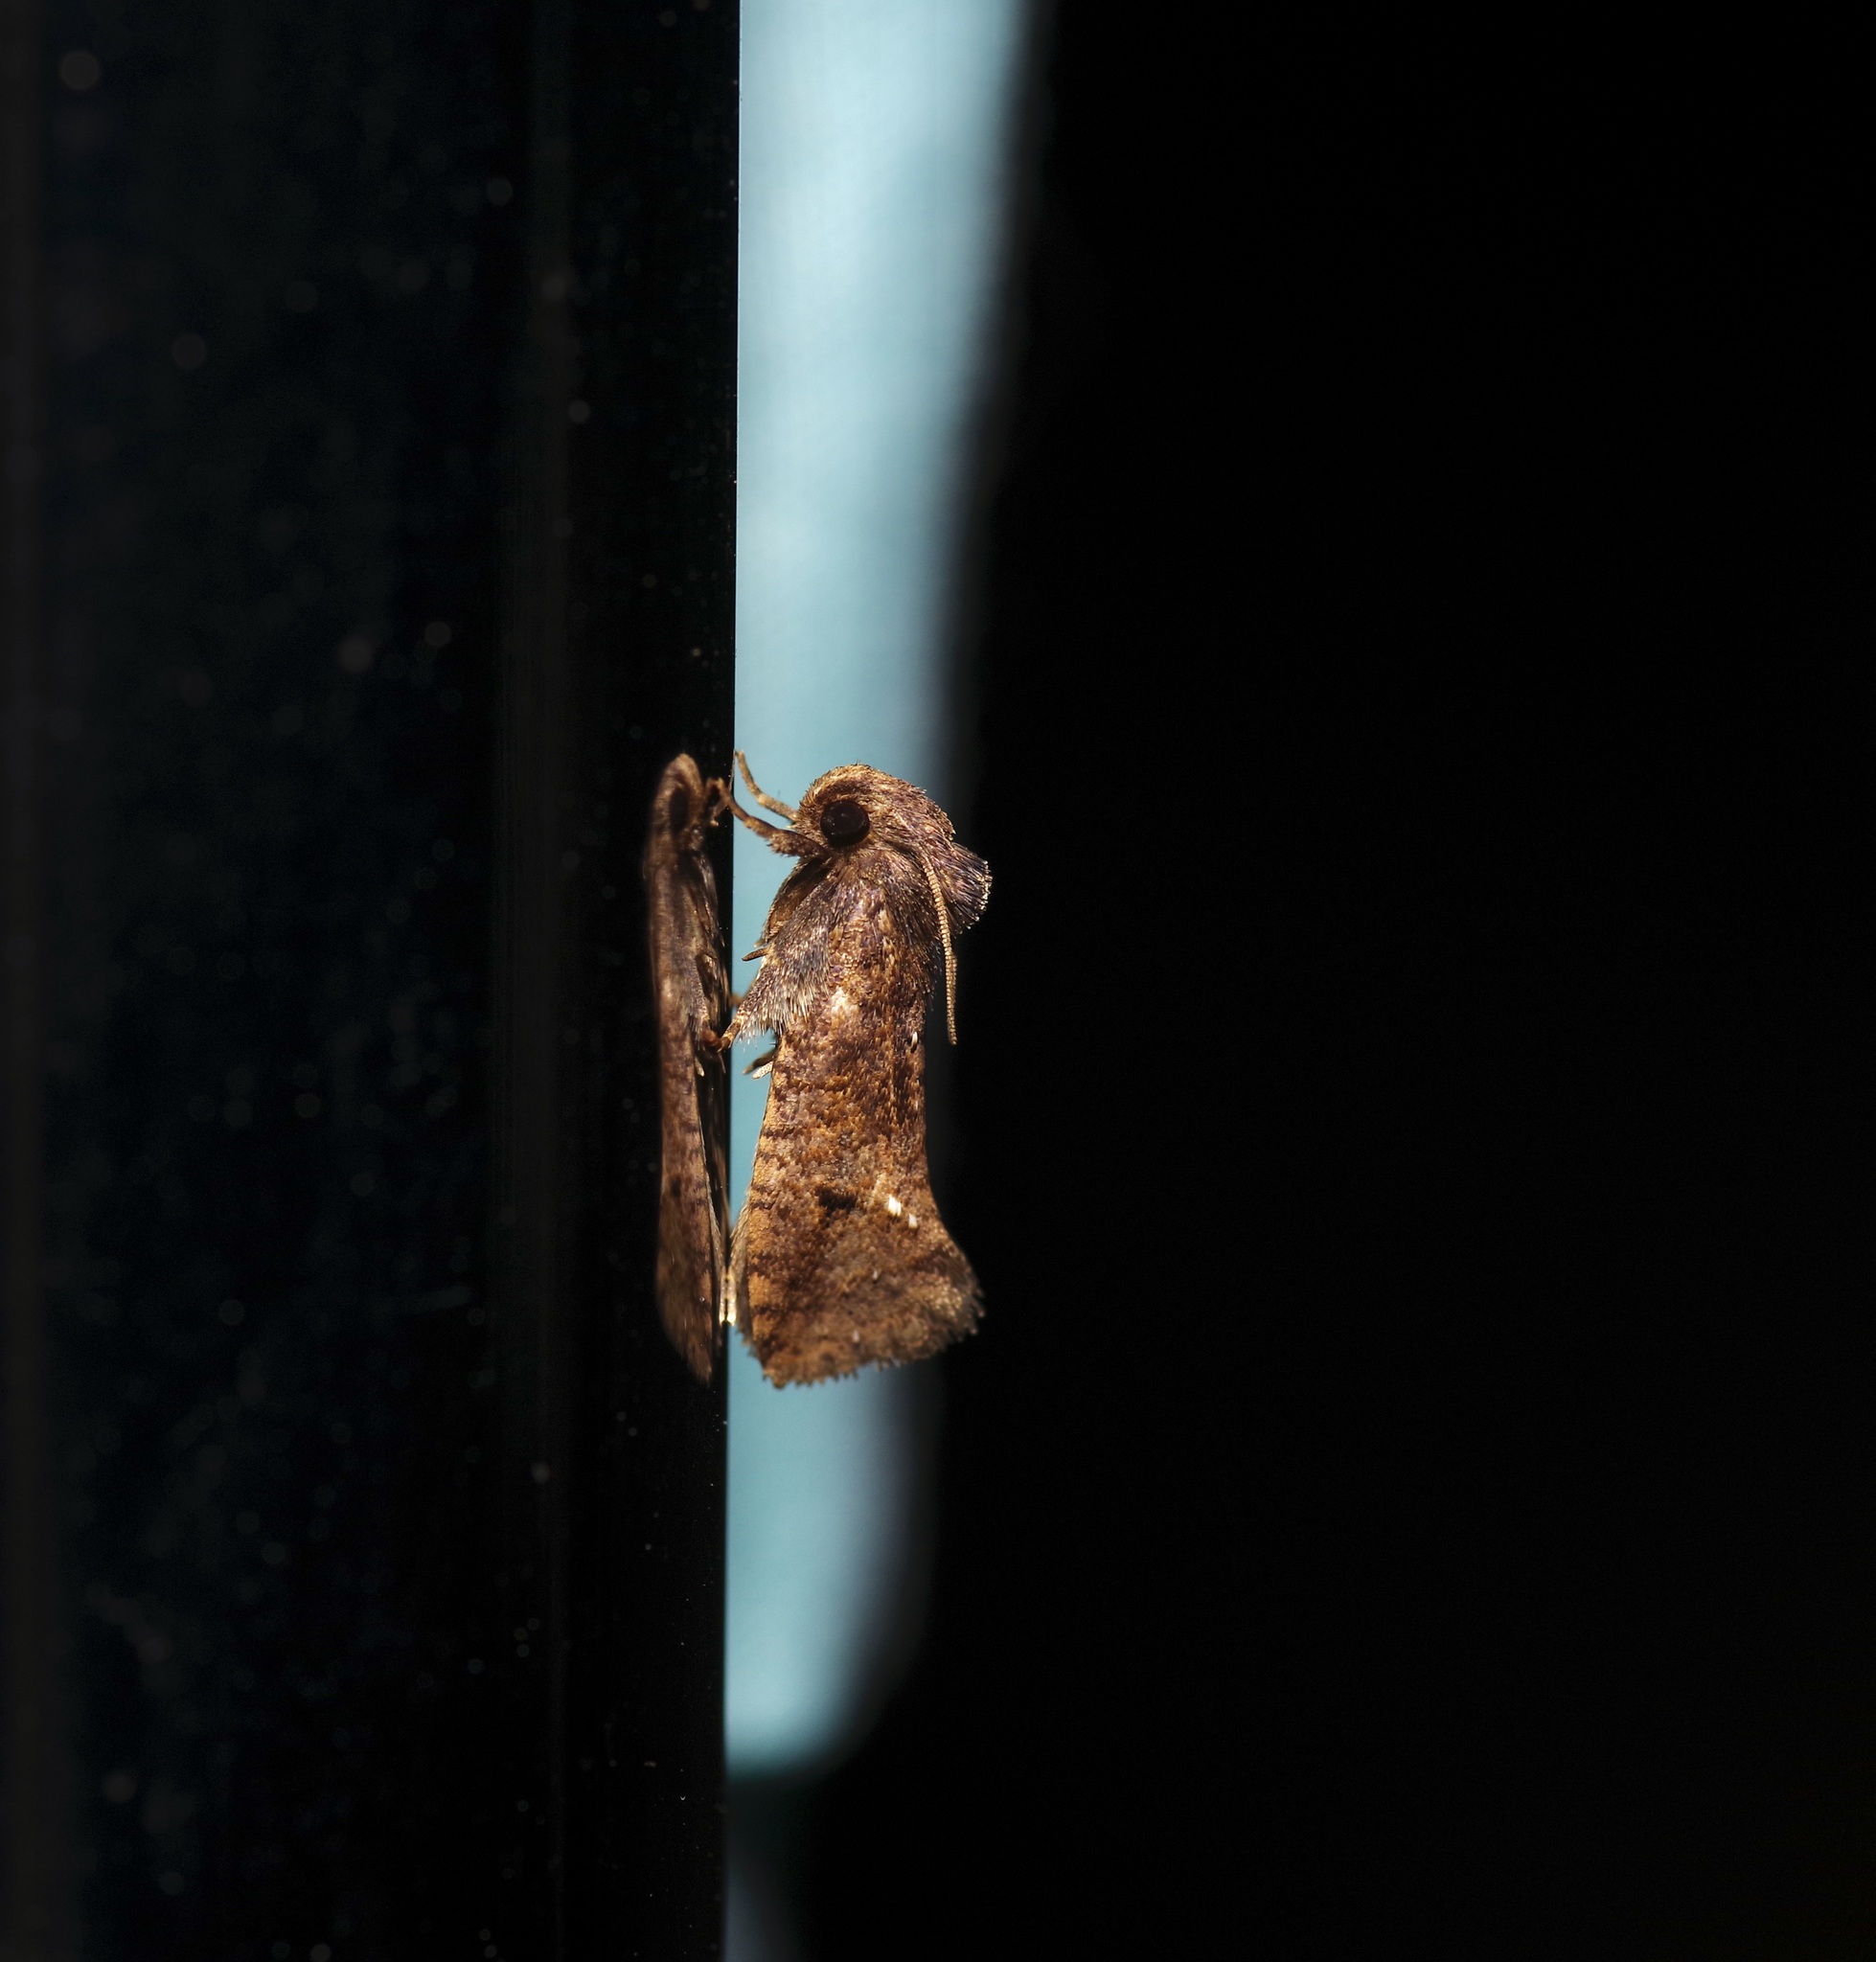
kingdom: Animalia
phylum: Arthropoda
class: Insecta
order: Lepidoptera
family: Tineidae
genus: Acrolophus
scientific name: Acrolophus texanella
